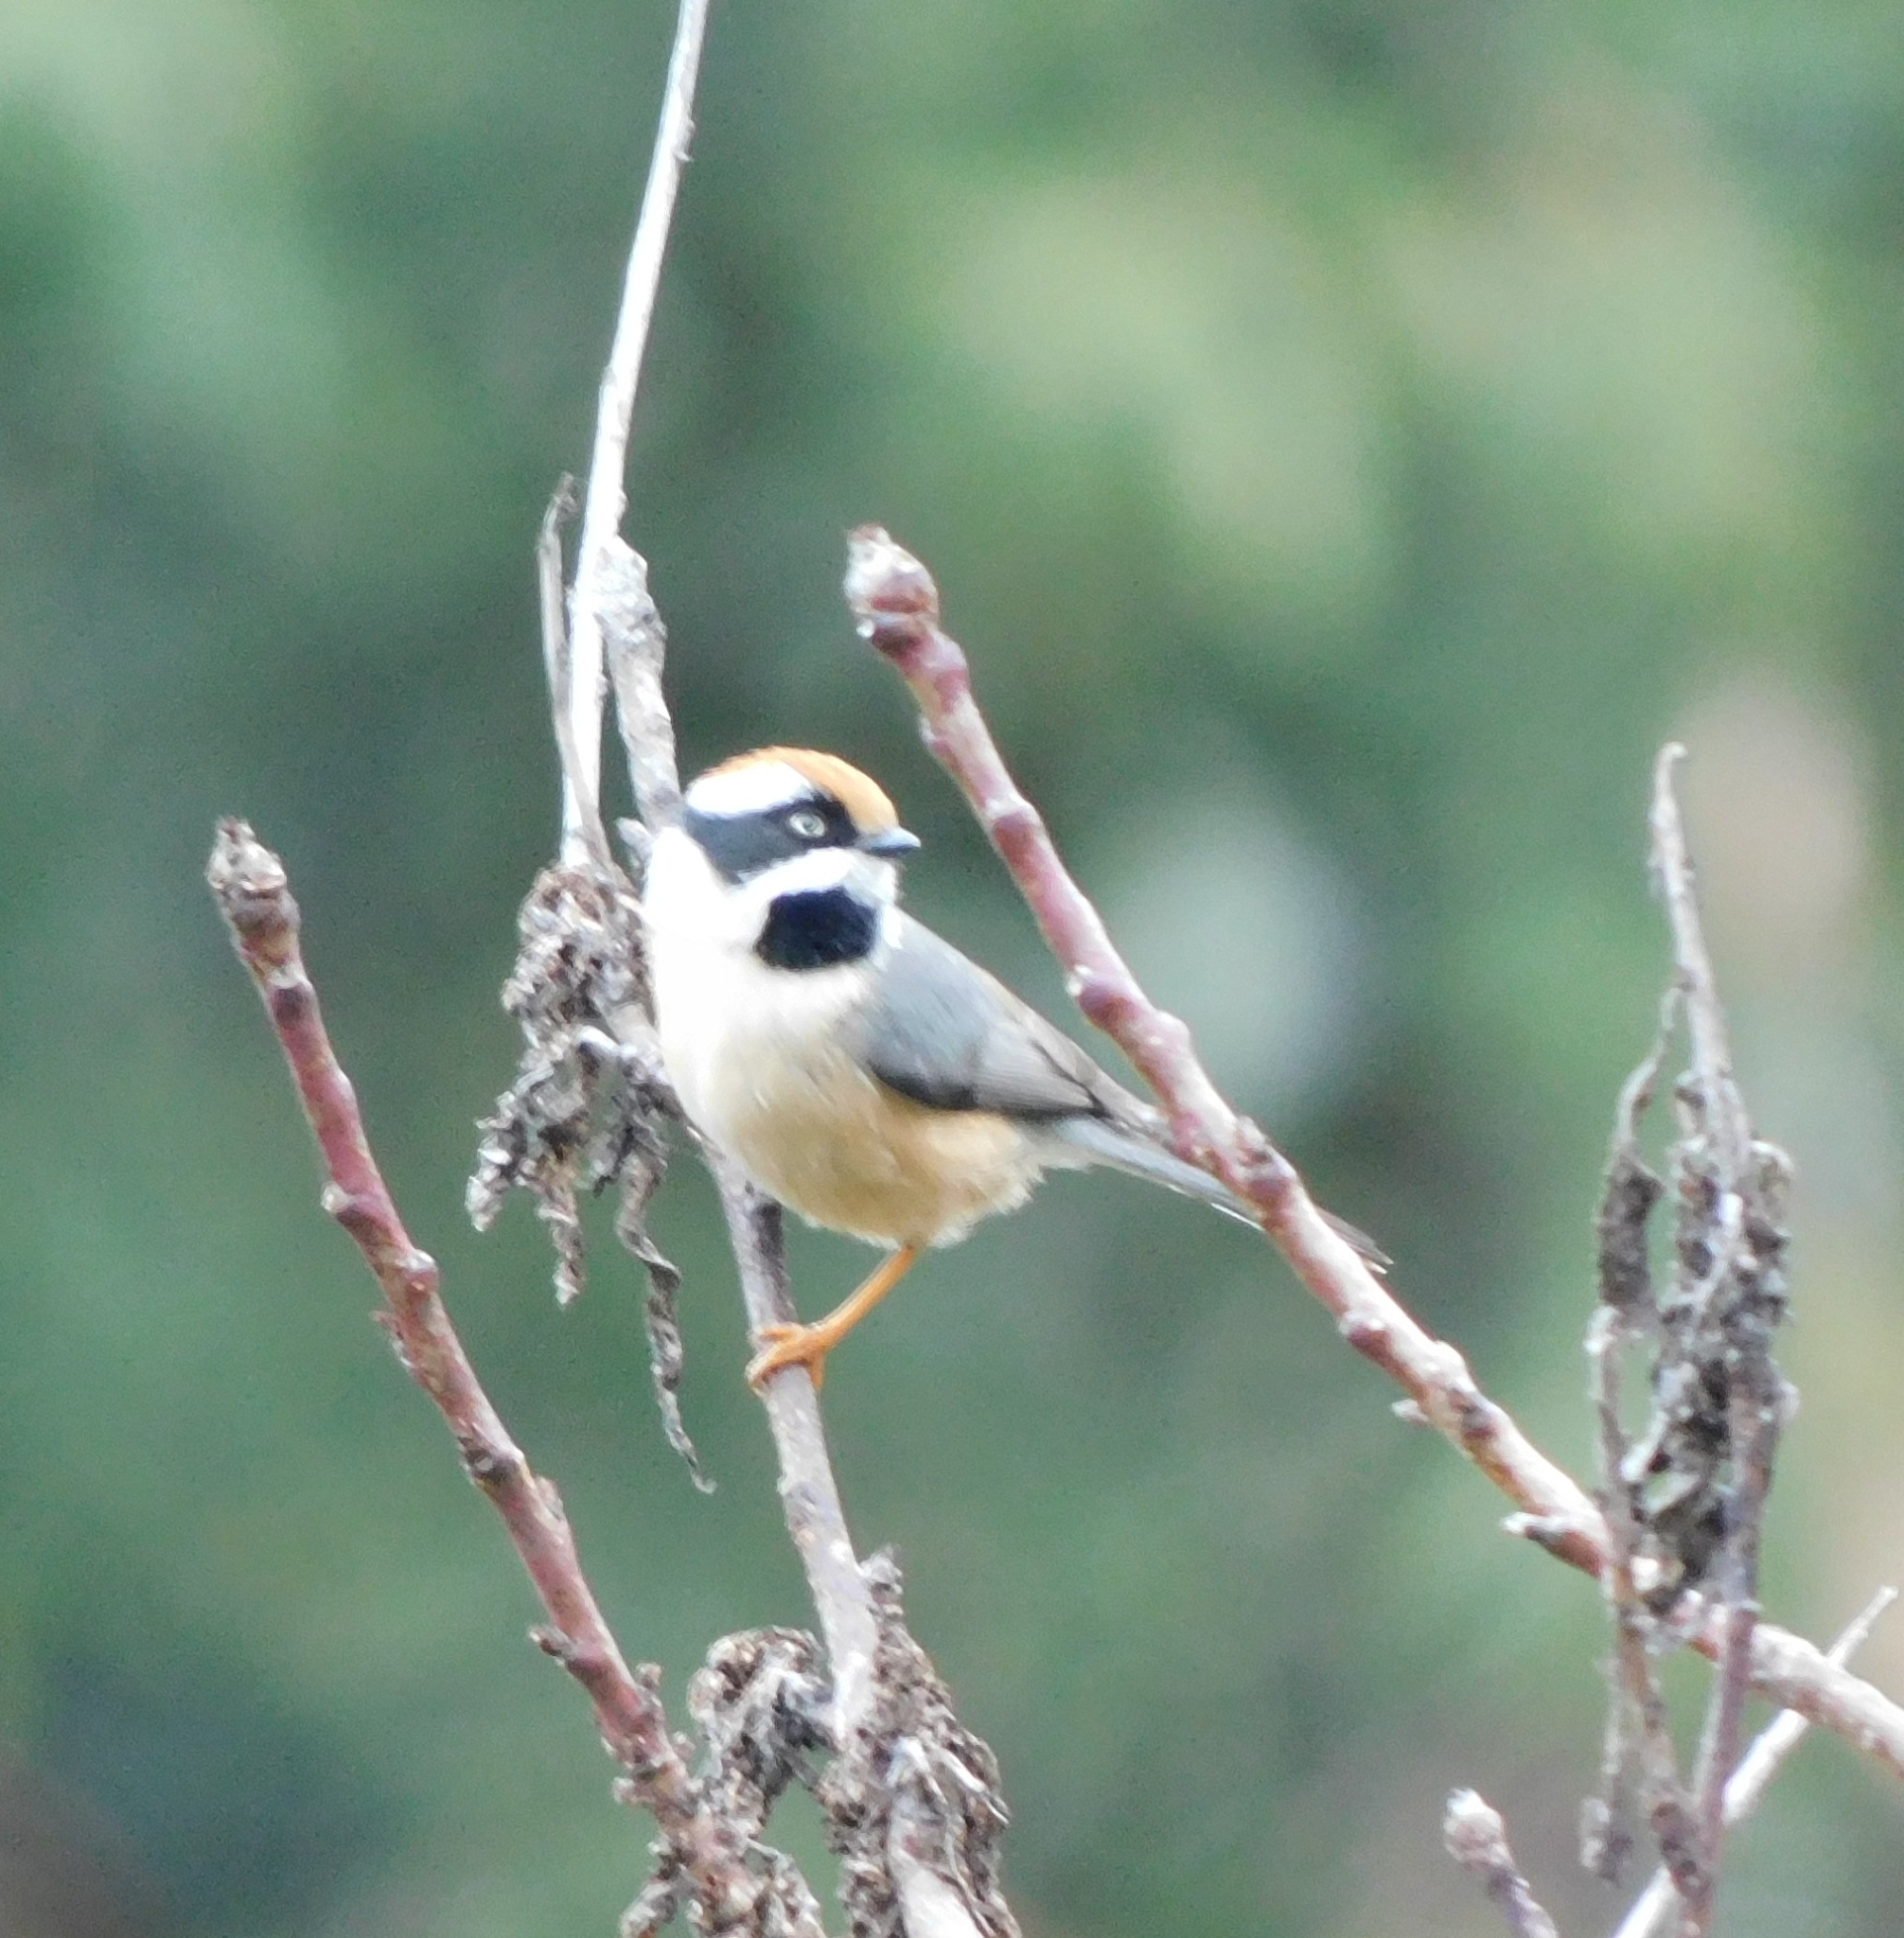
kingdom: Animalia
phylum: Chordata
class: Aves
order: Passeriformes
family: Aegithalidae
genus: Aegithalos
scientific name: Aegithalos concinnus
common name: Black-throated bushtit
